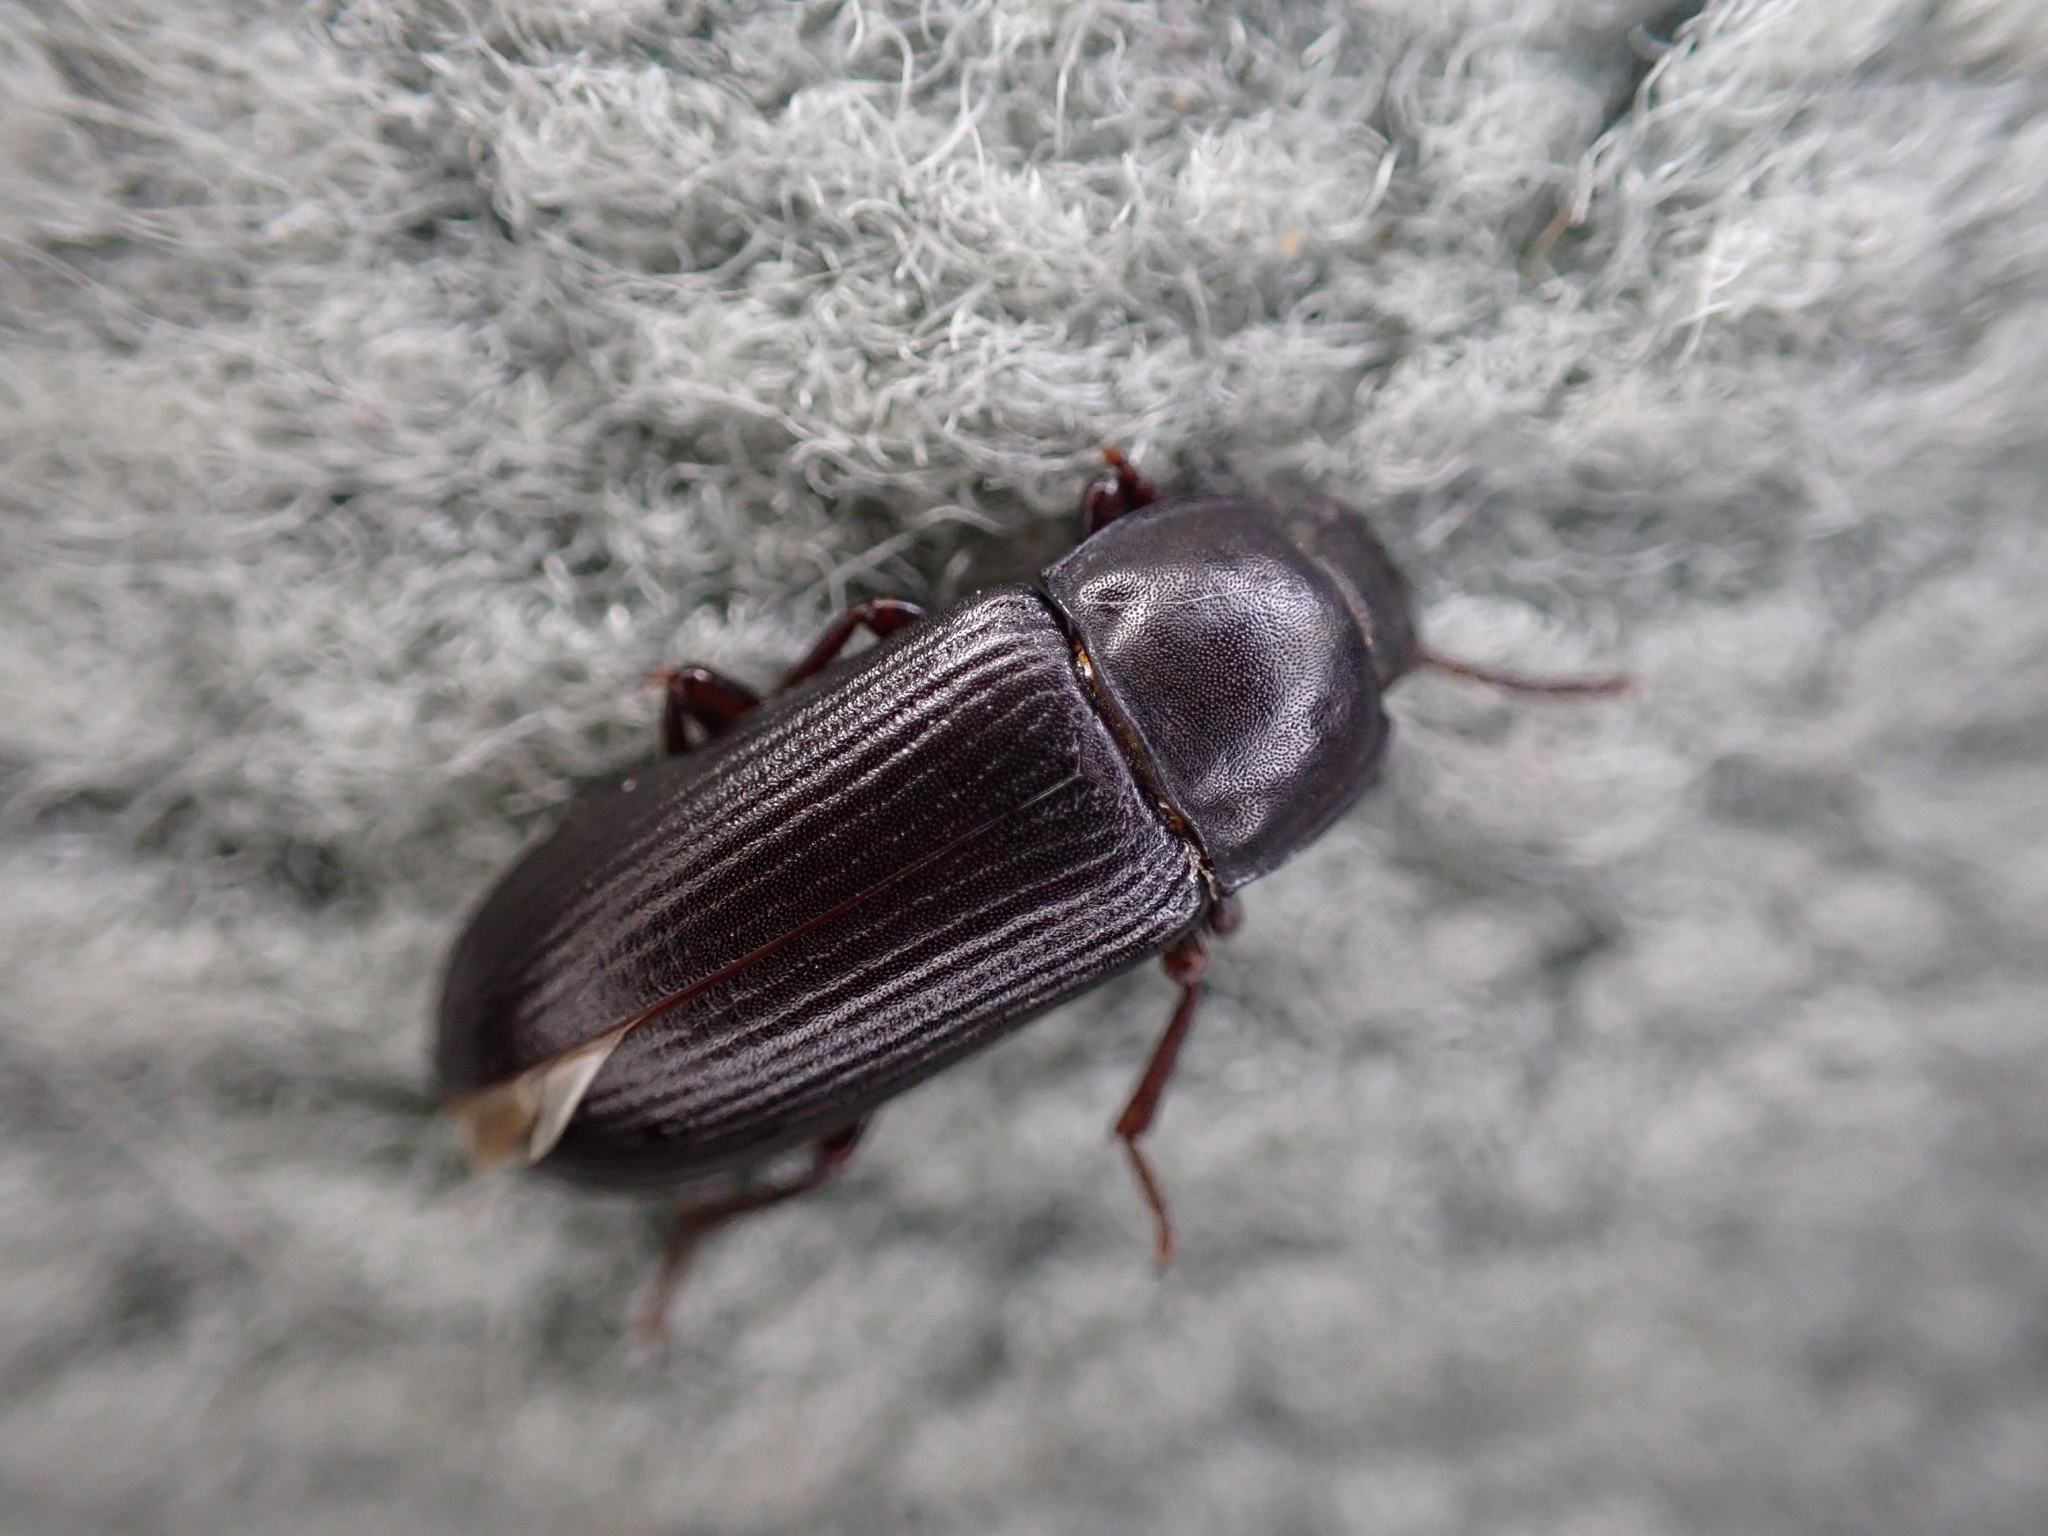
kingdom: Animalia
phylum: Arthropoda
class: Insecta
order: Coleoptera
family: Tenebrionidae
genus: Tenebrio
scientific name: Tenebrio molitor
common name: Hardback beetle
